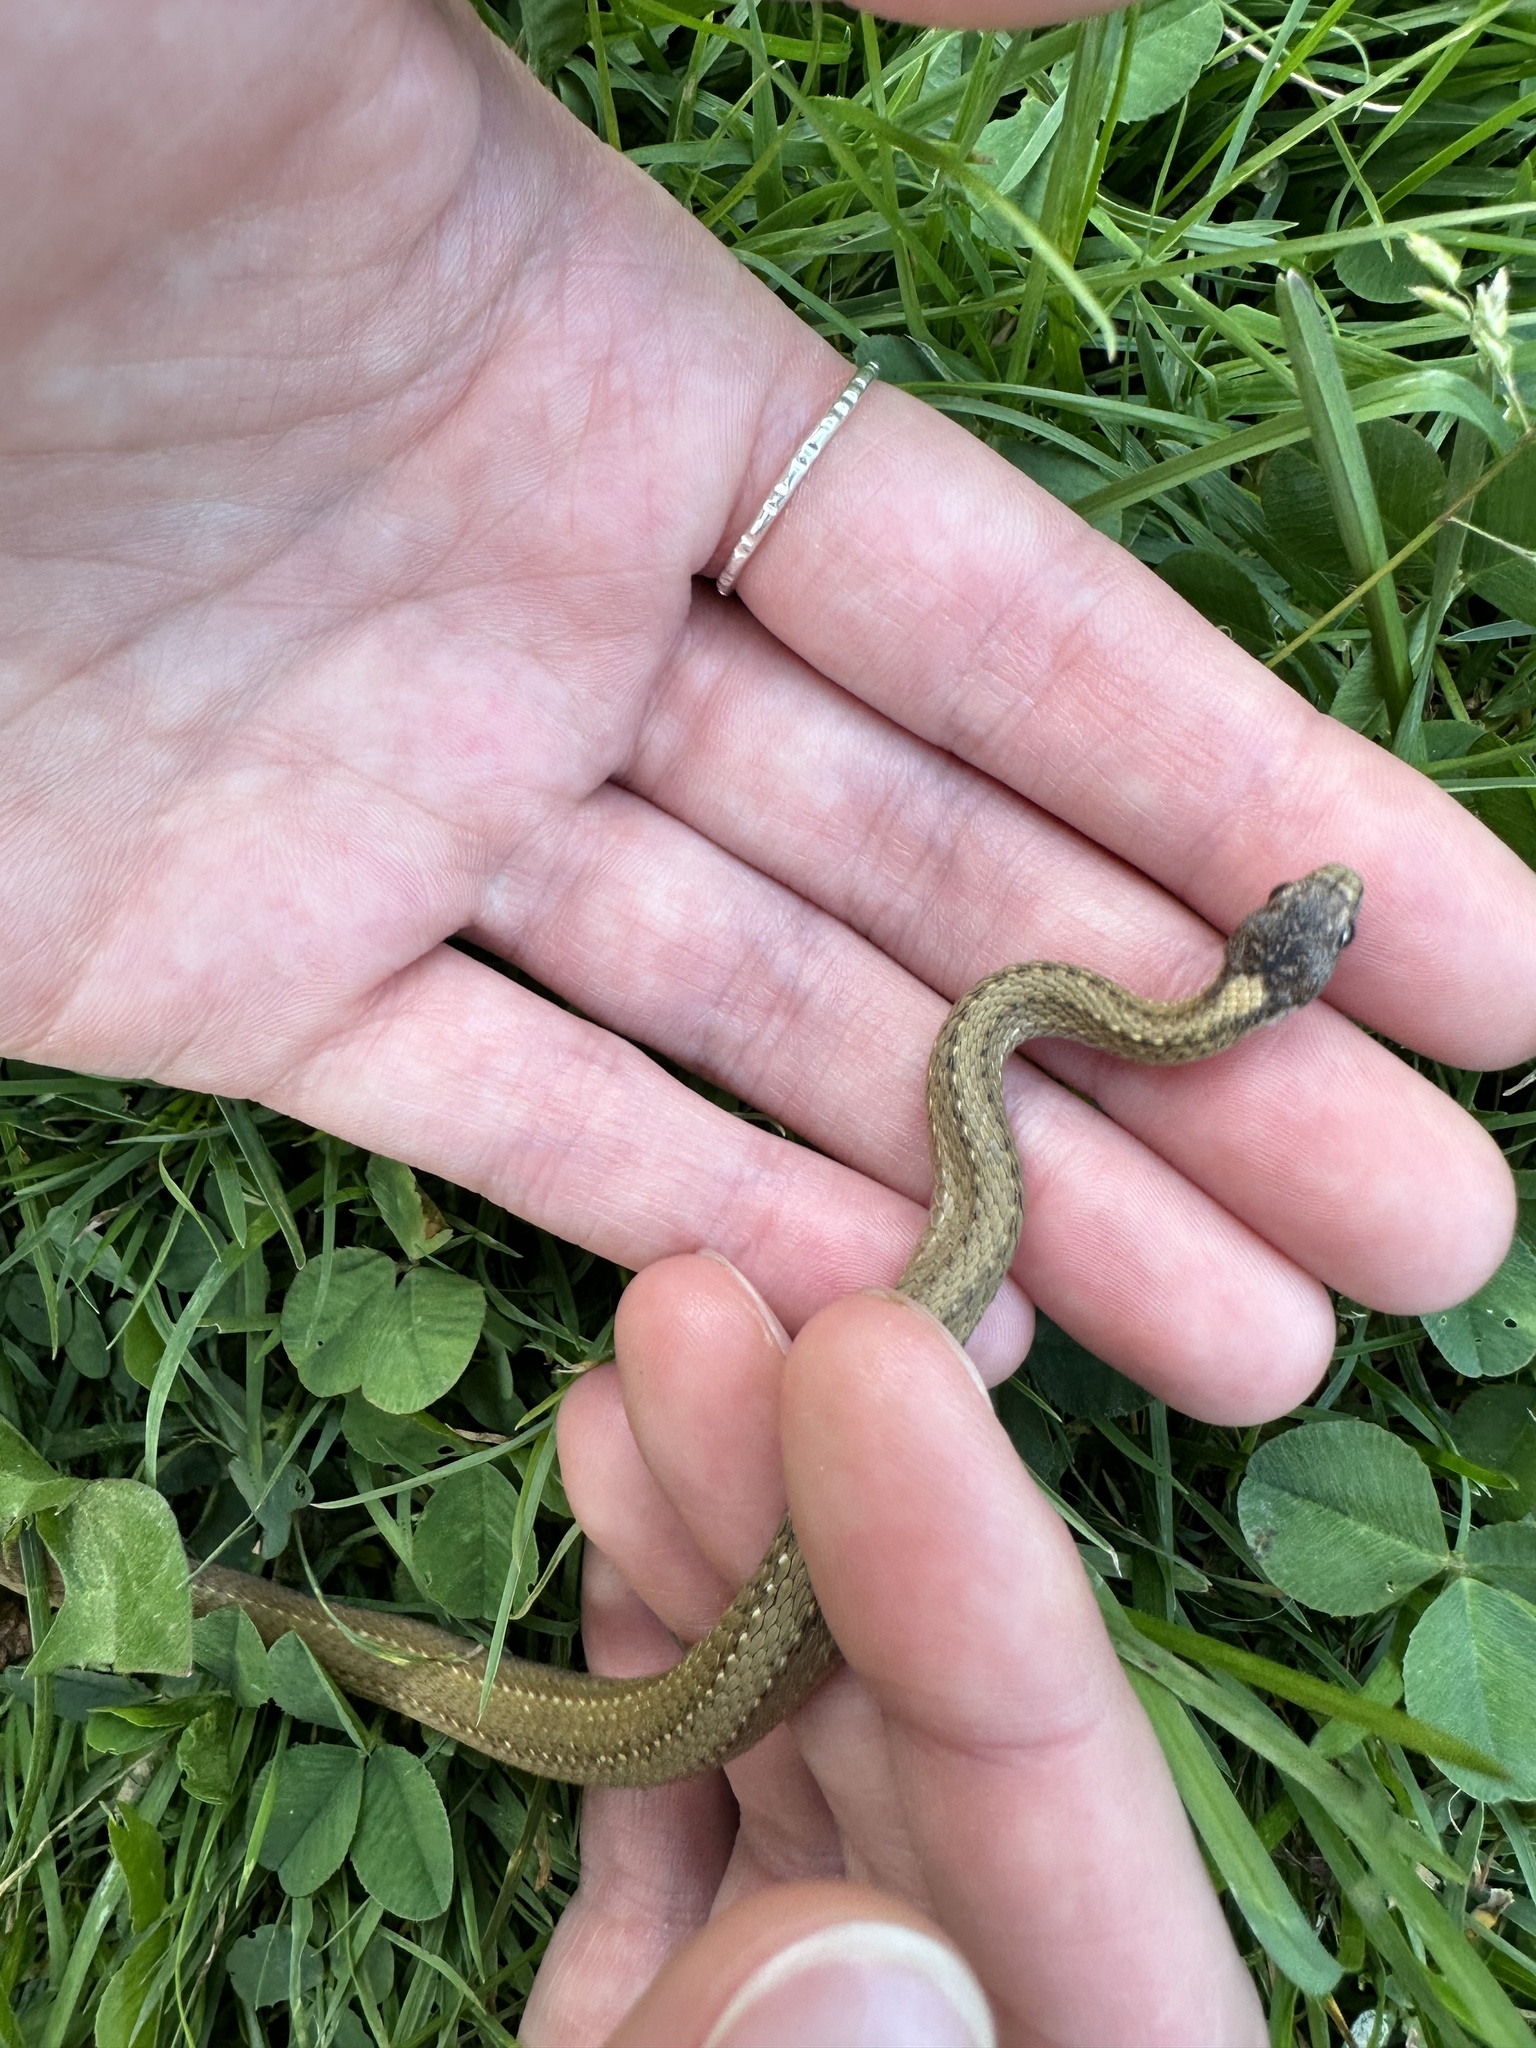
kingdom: Animalia
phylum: Chordata
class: Squamata
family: Colubridae
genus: Storeria
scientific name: Storeria occipitomaculata
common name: Redbelly snake
